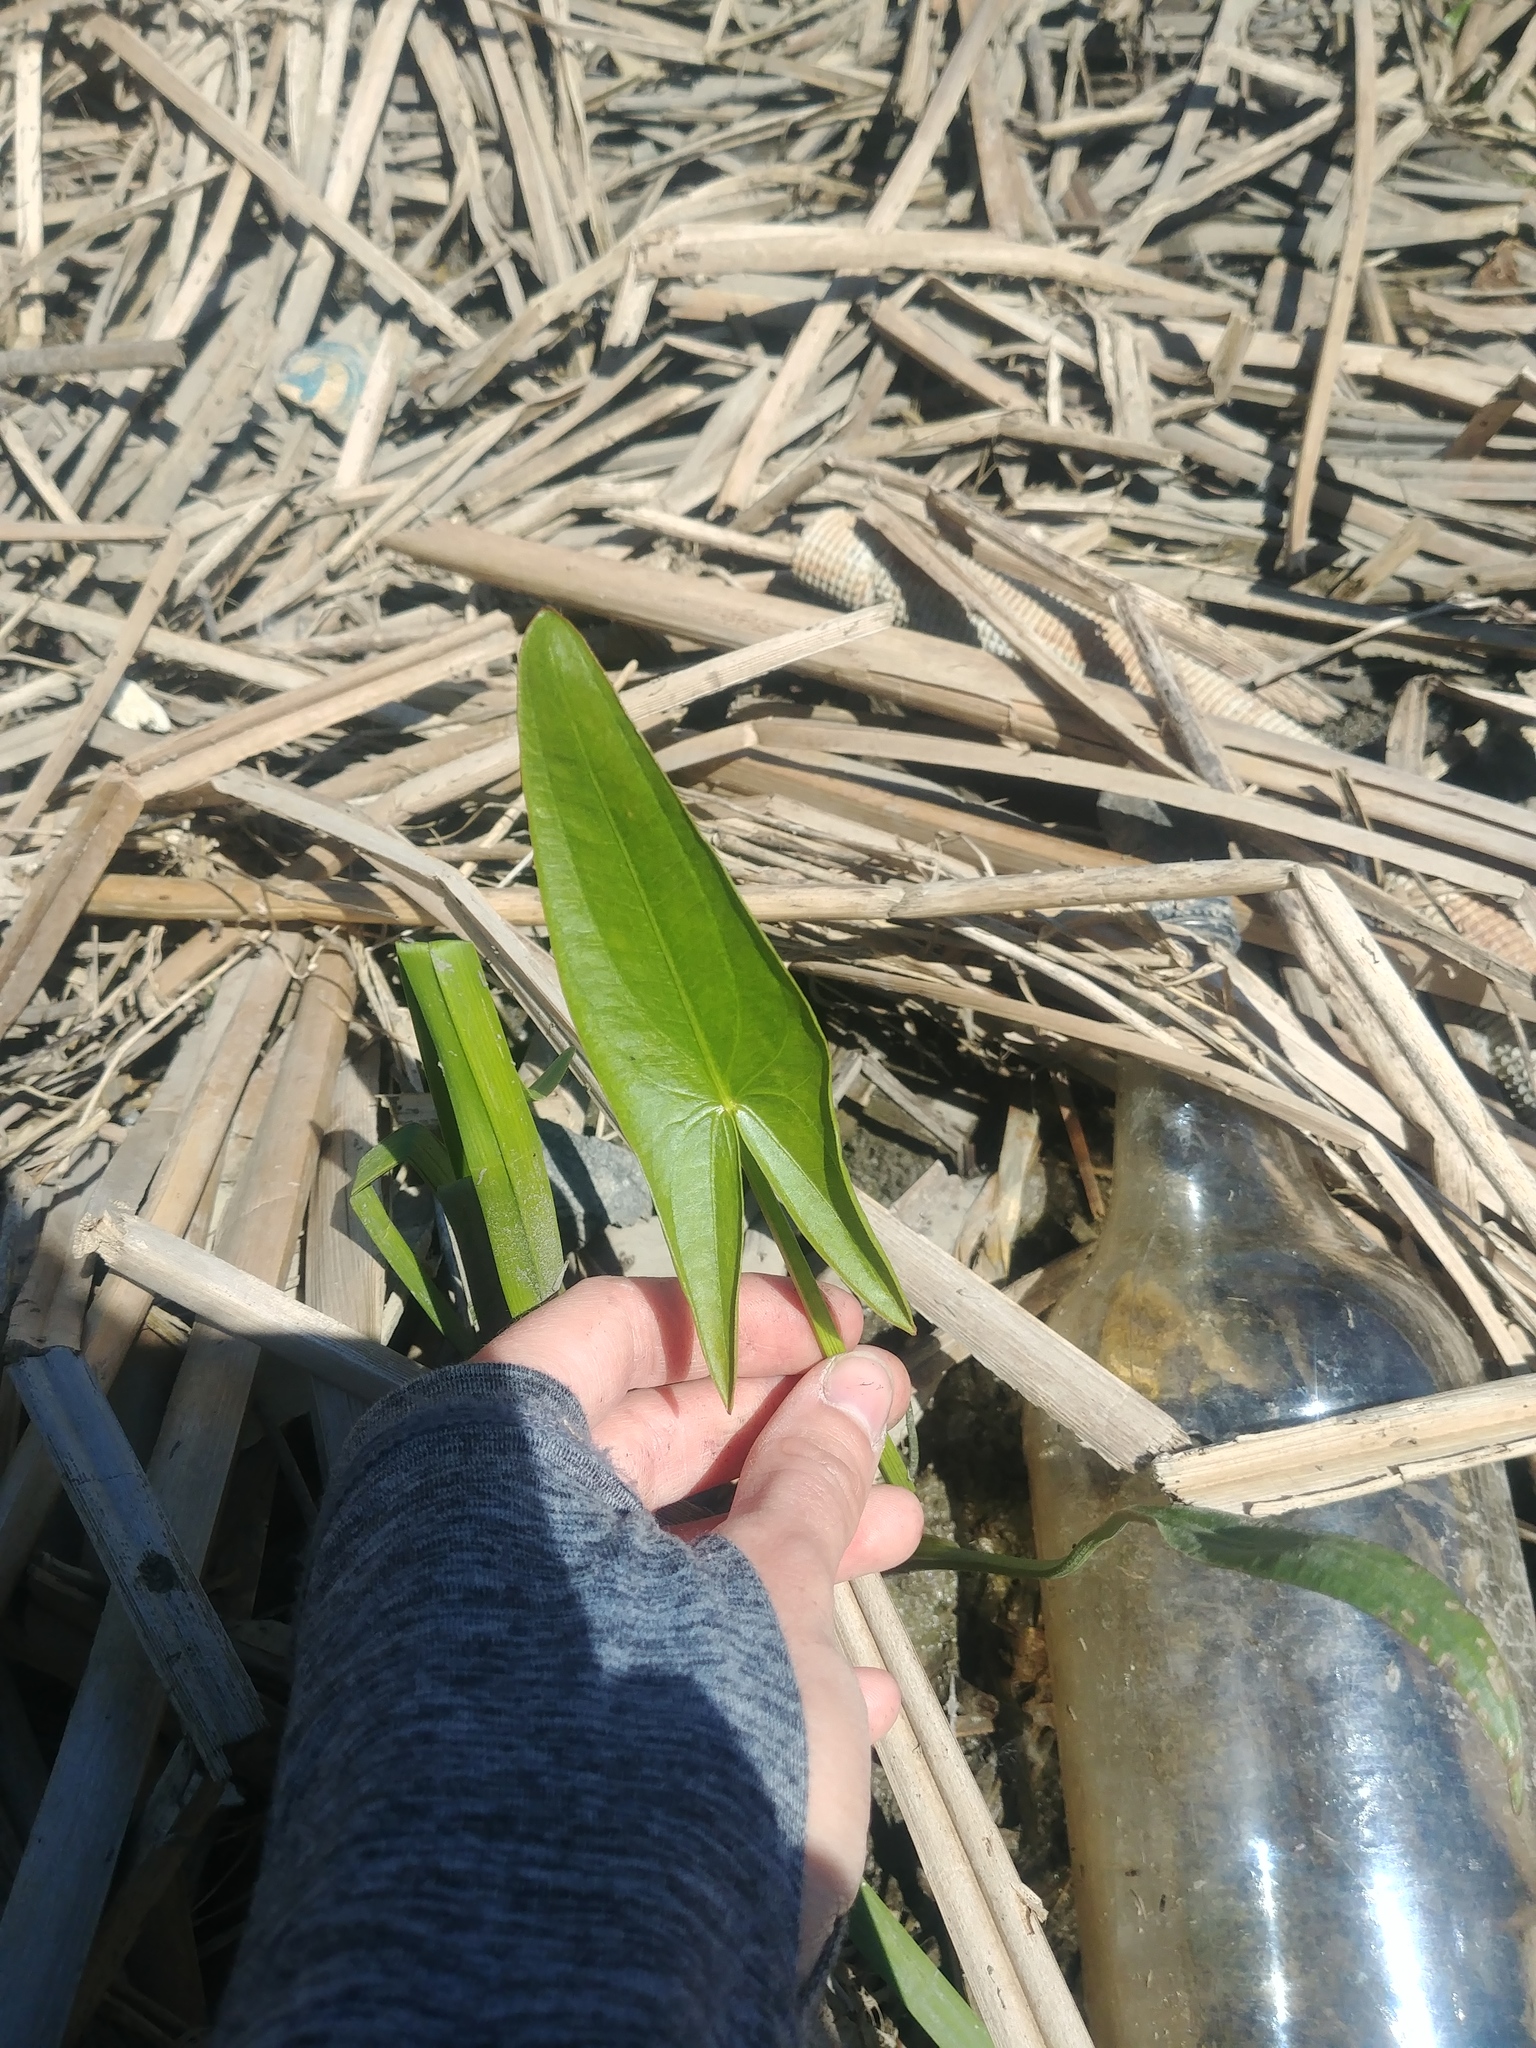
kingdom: Plantae
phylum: Tracheophyta
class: Liliopsida
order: Alismatales
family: Alismataceae
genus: Sagittaria
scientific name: Sagittaria
